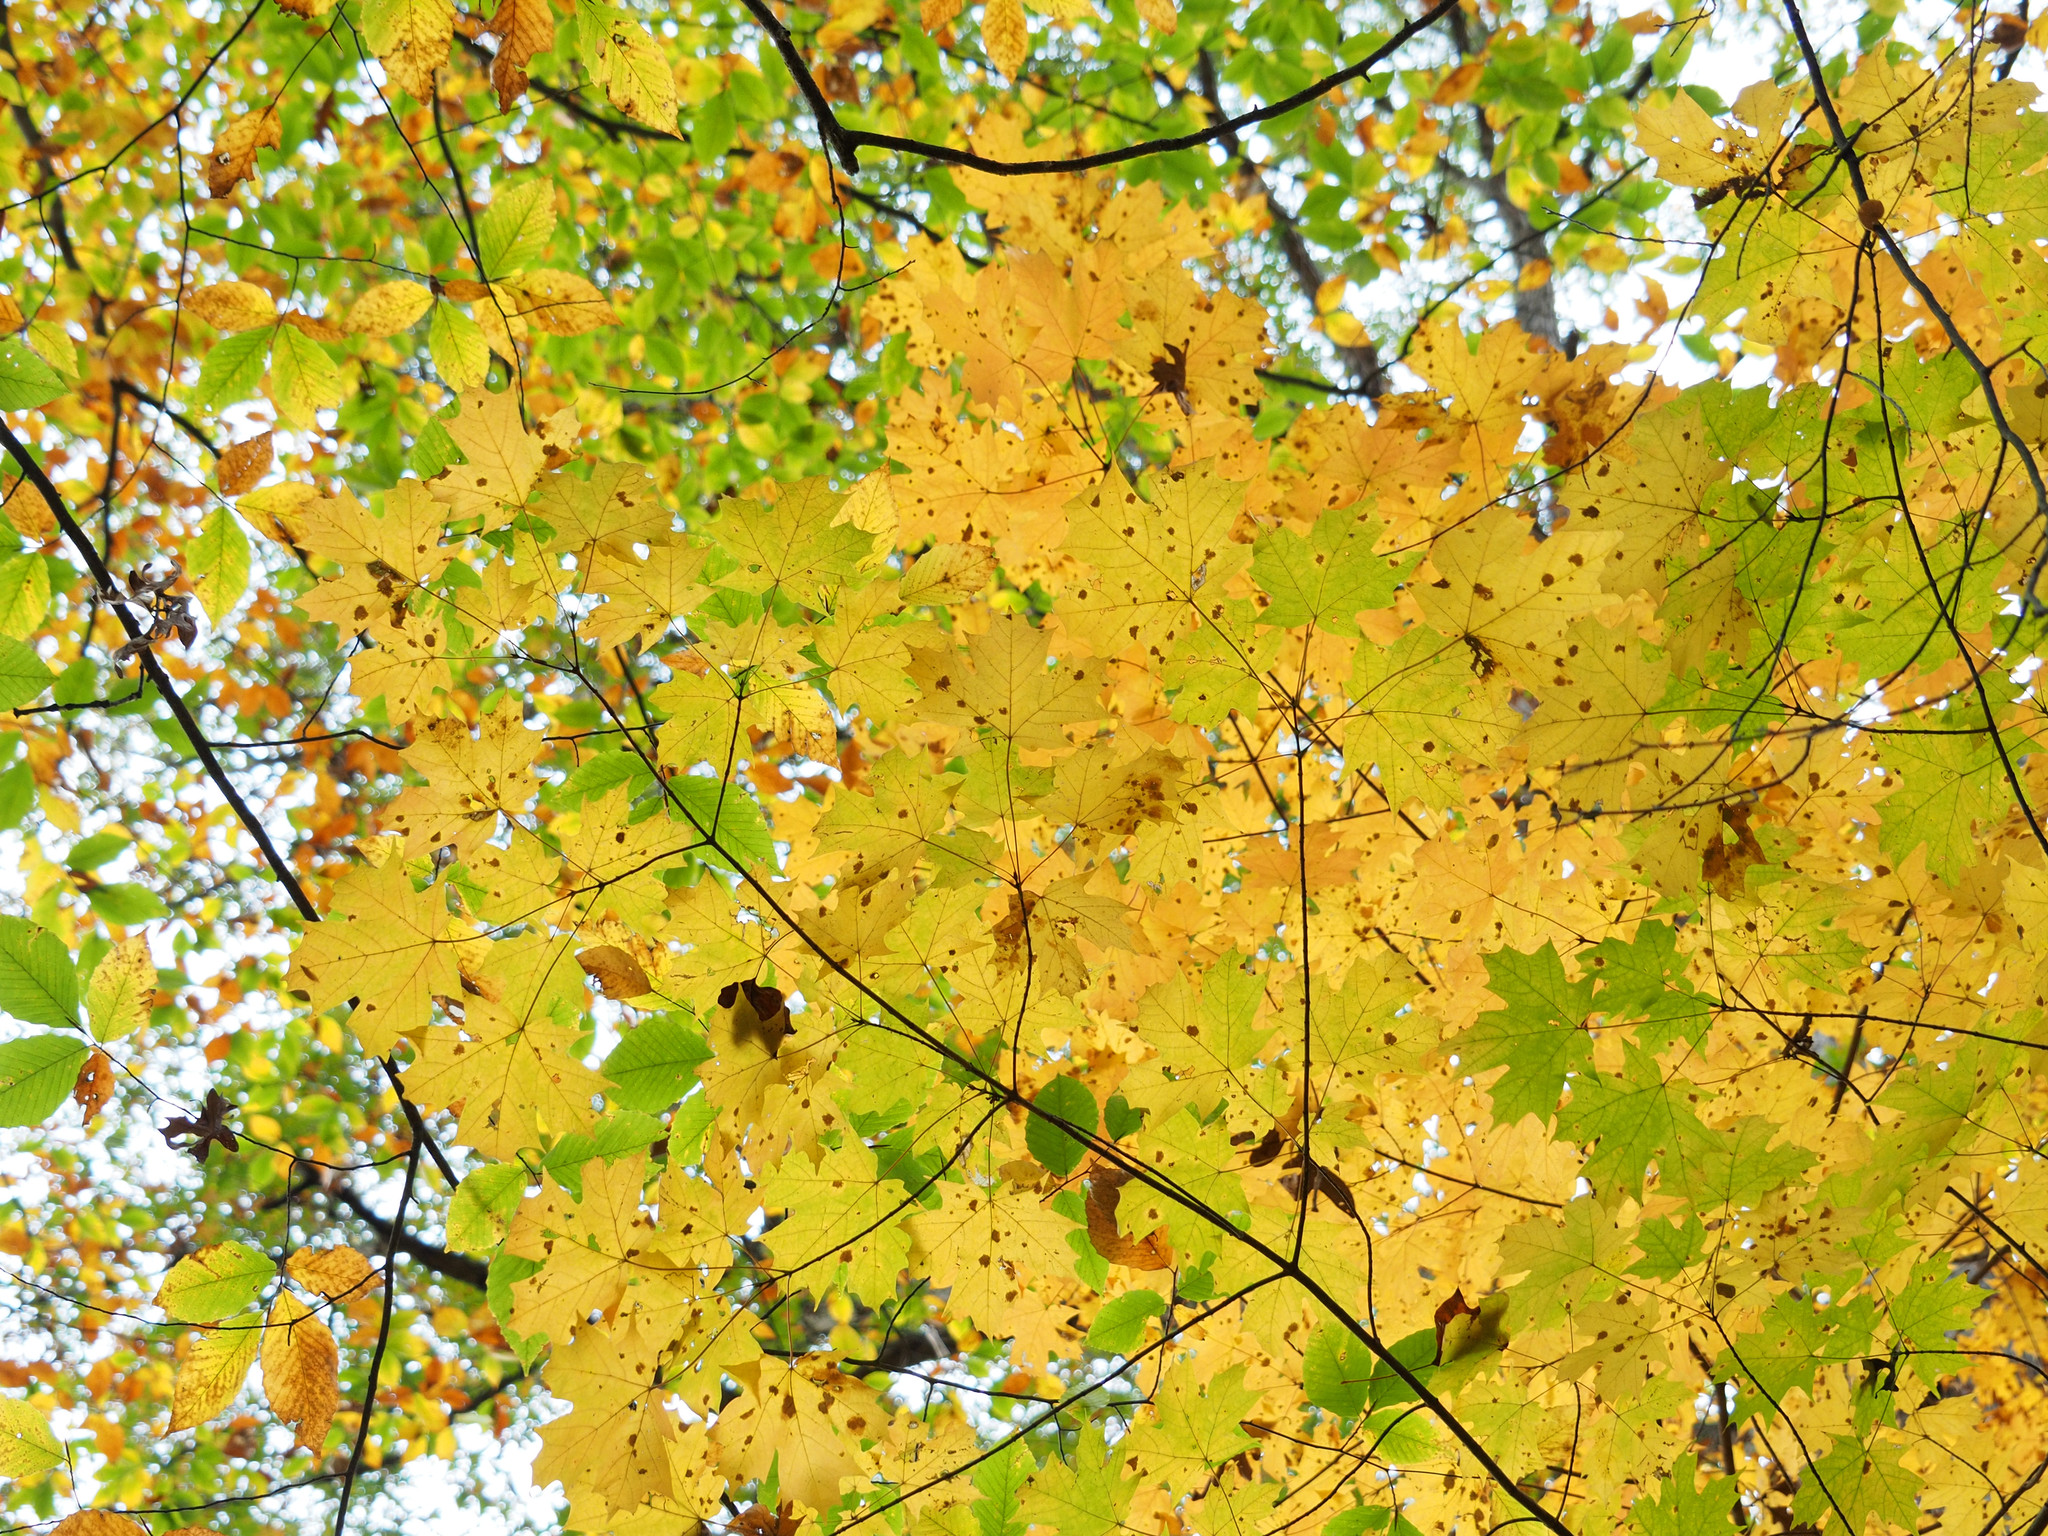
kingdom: Plantae
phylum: Tracheophyta
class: Magnoliopsida
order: Sapindales
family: Sapindaceae
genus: Acer
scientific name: Acer saccharum
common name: Sugar maple
